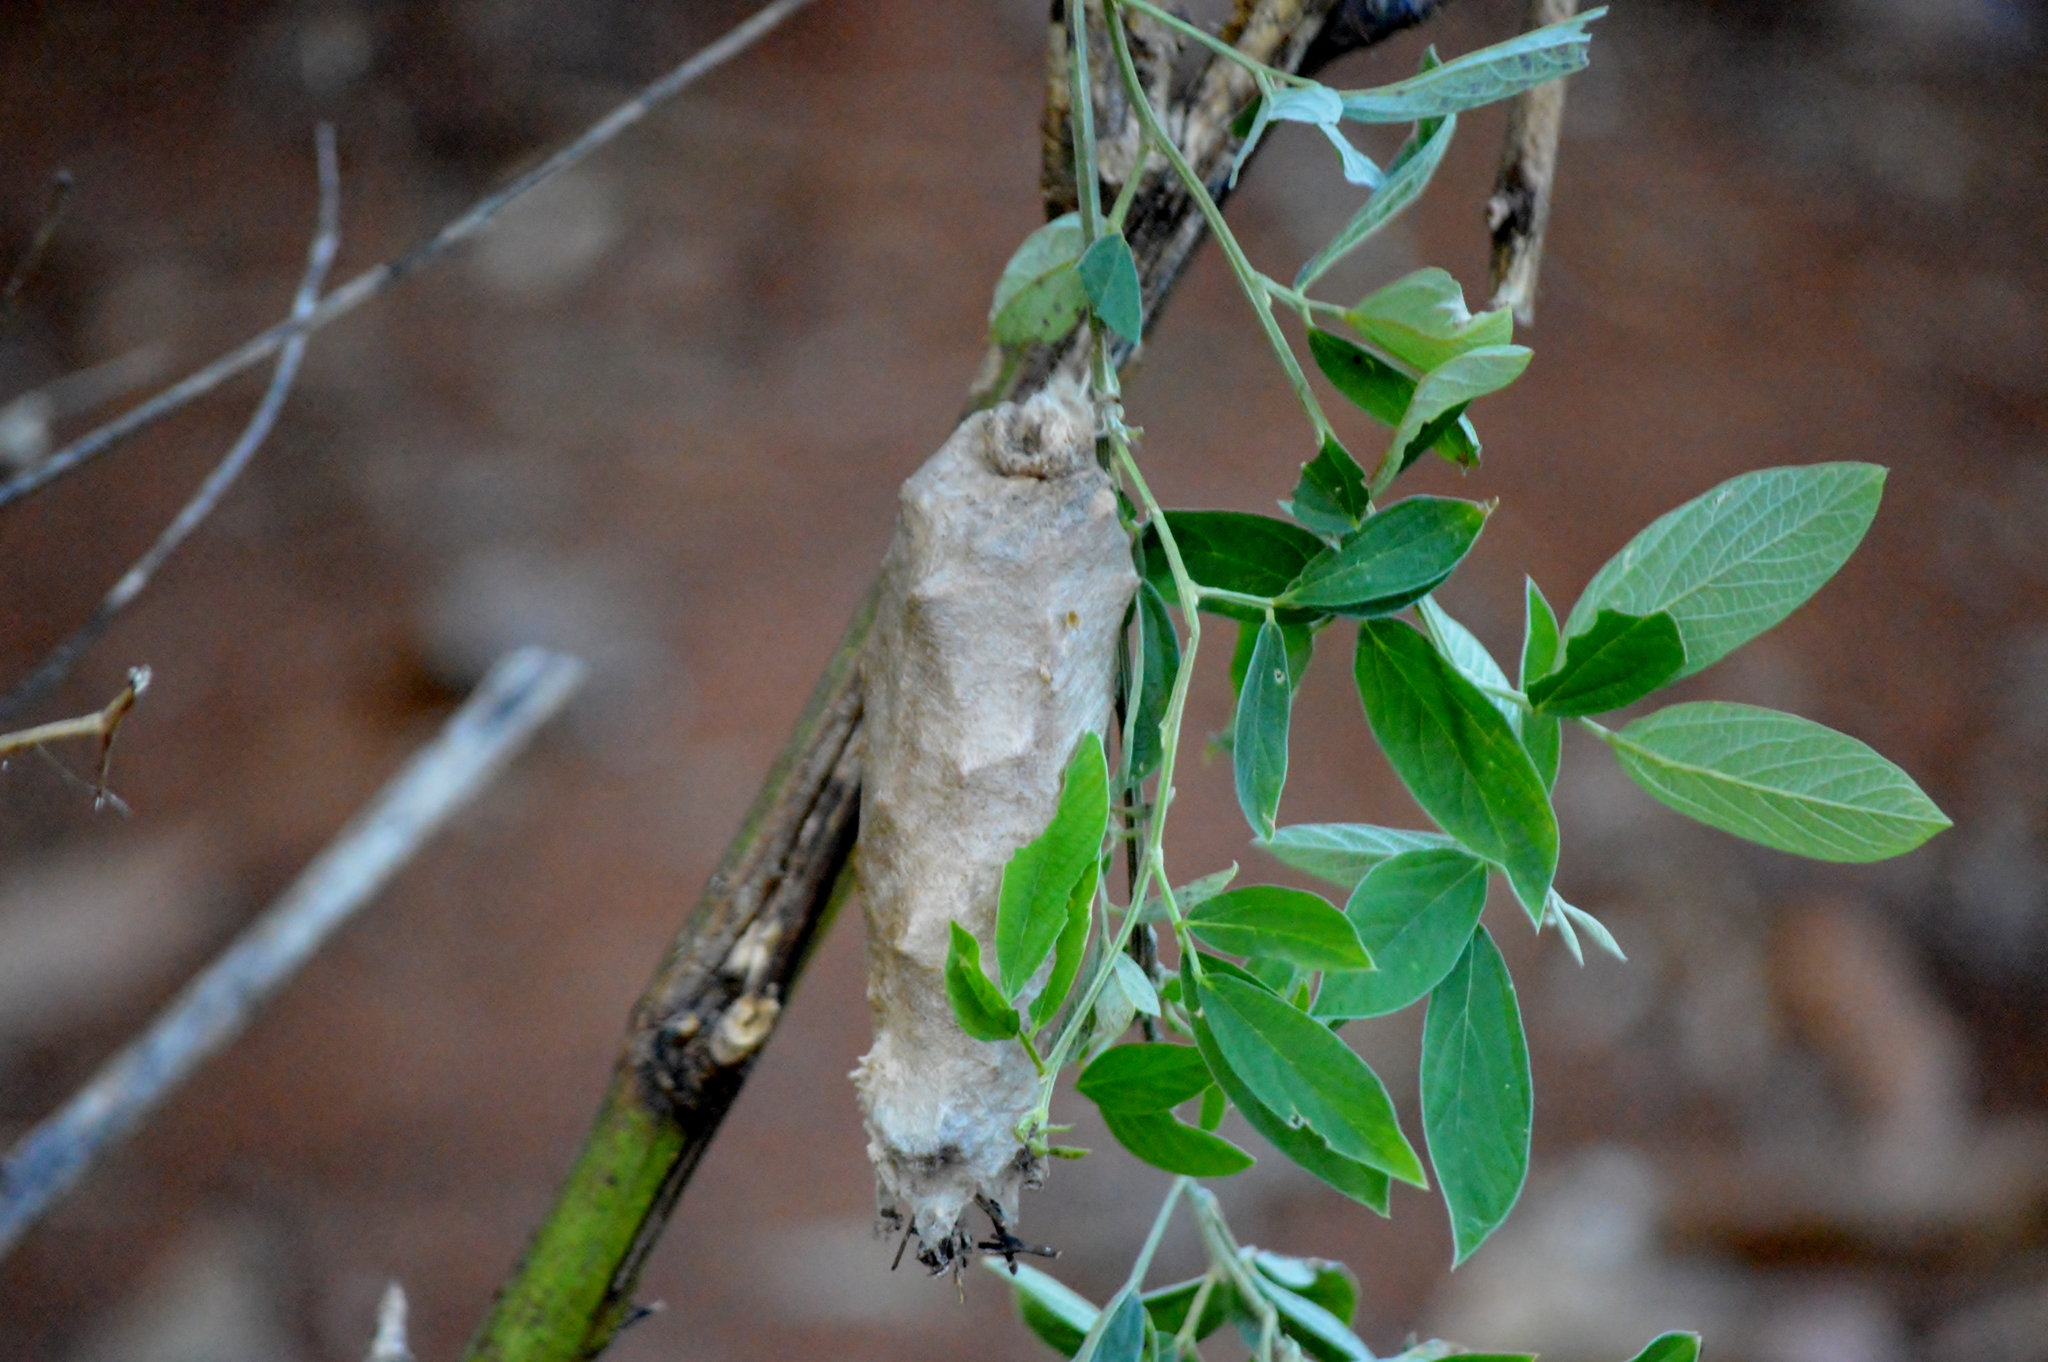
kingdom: Animalia
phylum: Arthropoda
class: Insecta
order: Lepidoptera
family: Psychidae
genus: Oiketicus
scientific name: Oiketicus kirbyi
